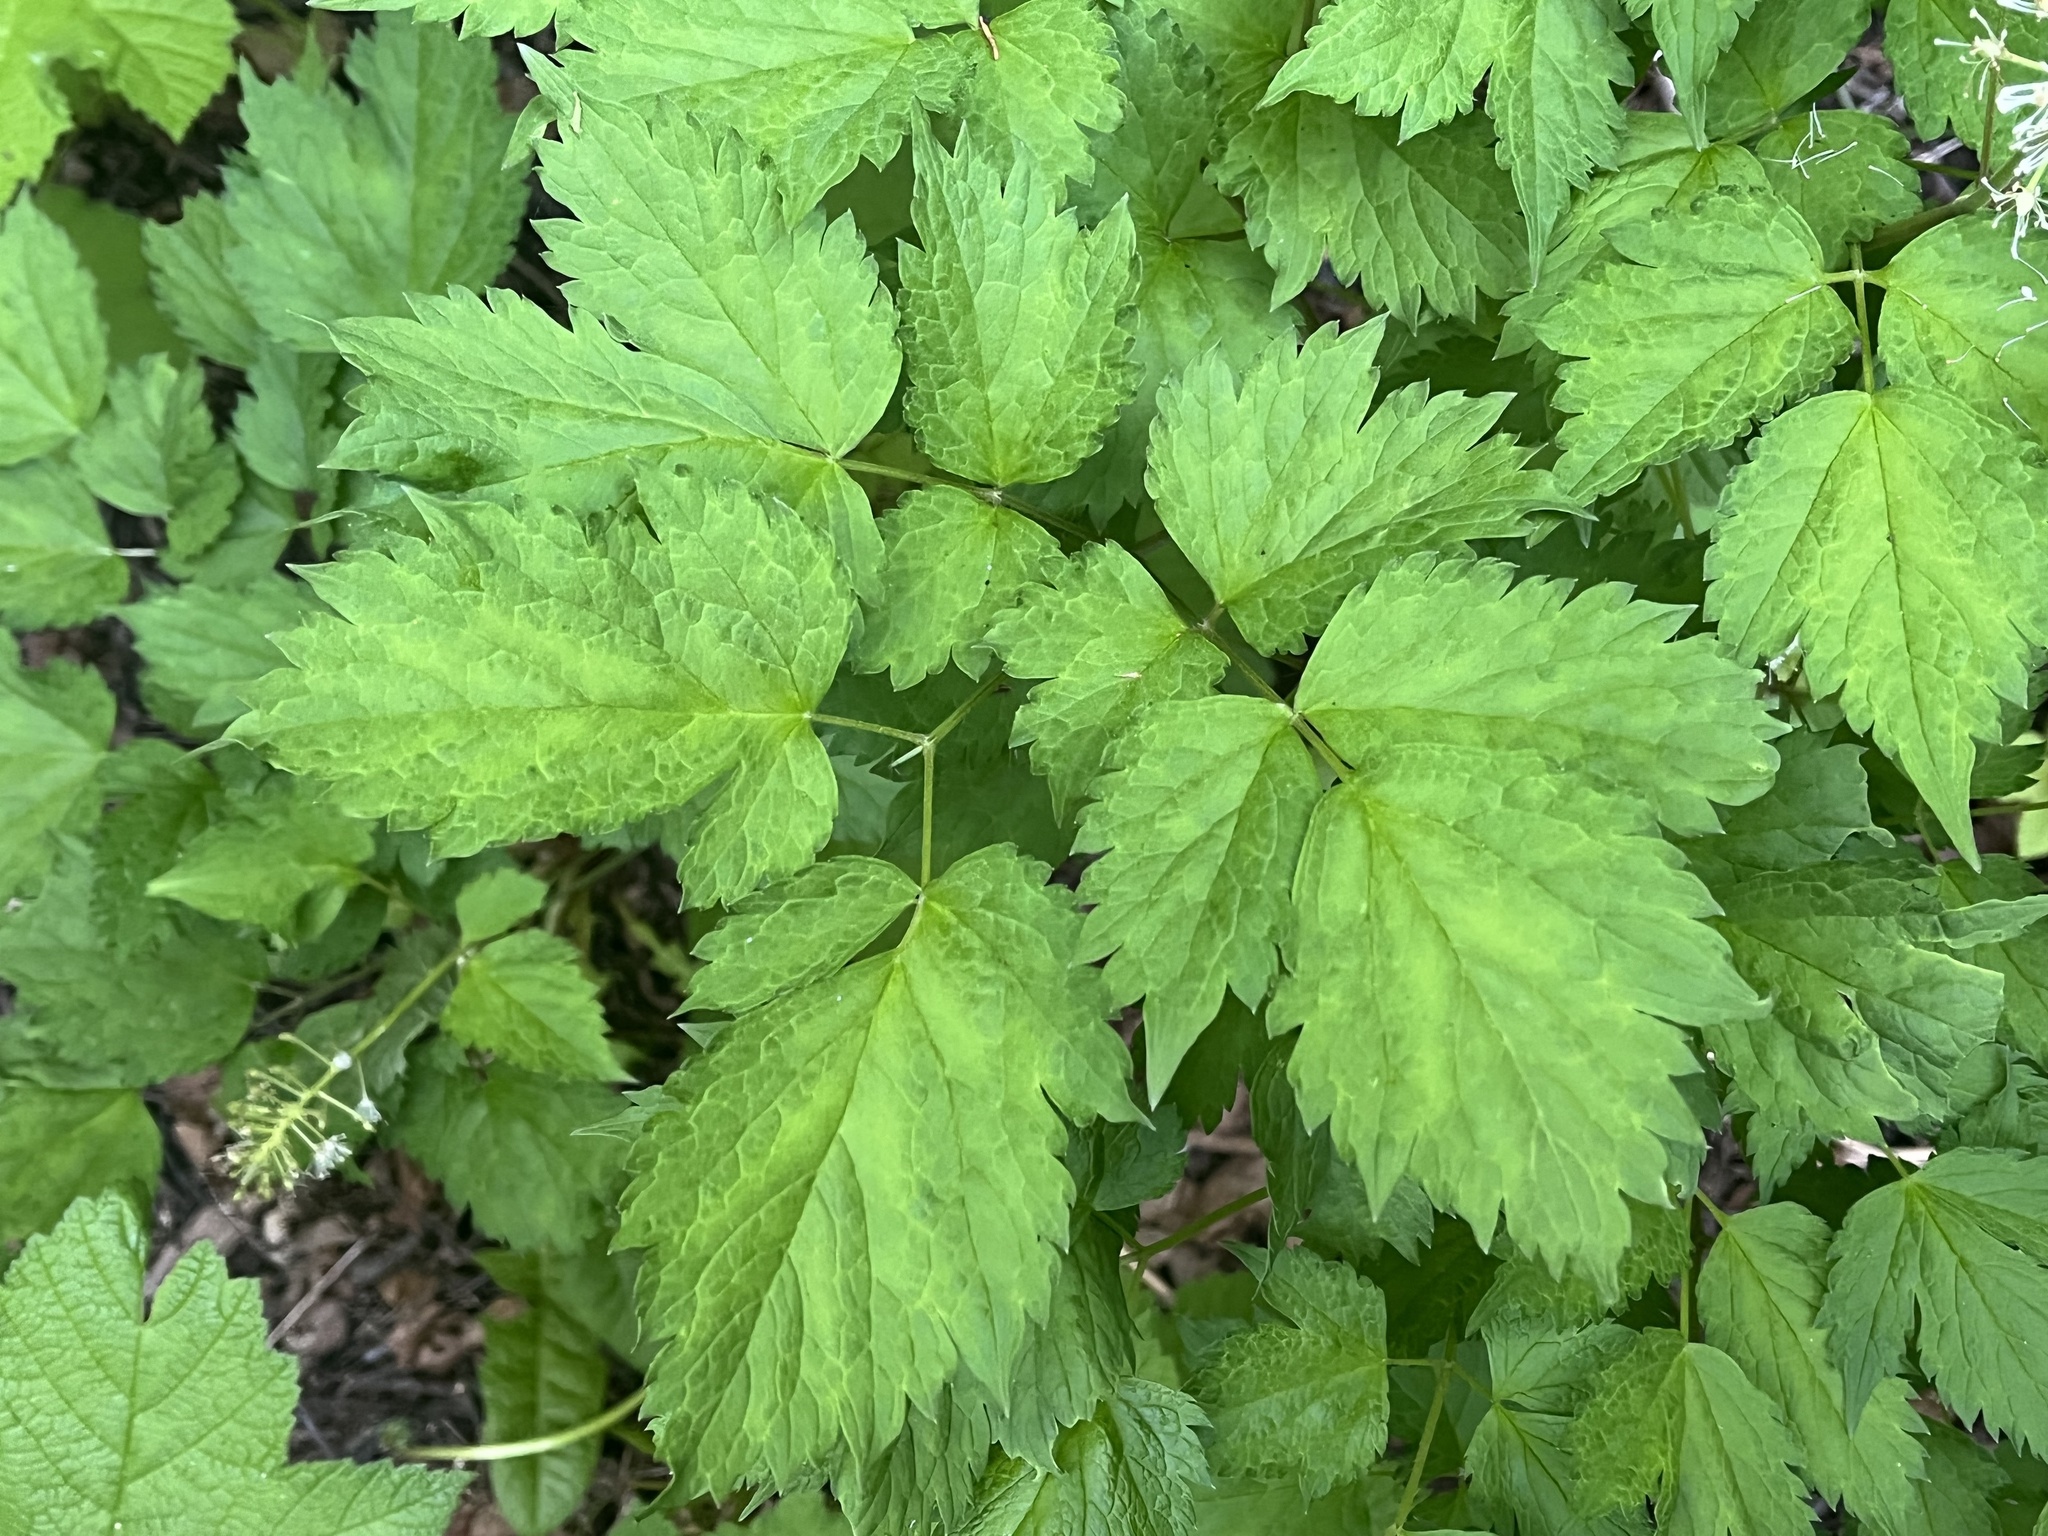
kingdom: Plantae
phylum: Tracheophyta
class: Magnoliopsida
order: Ranunculales
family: Ranunculaceae
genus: Actaea
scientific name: Actaea rubra
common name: Red baneberry
